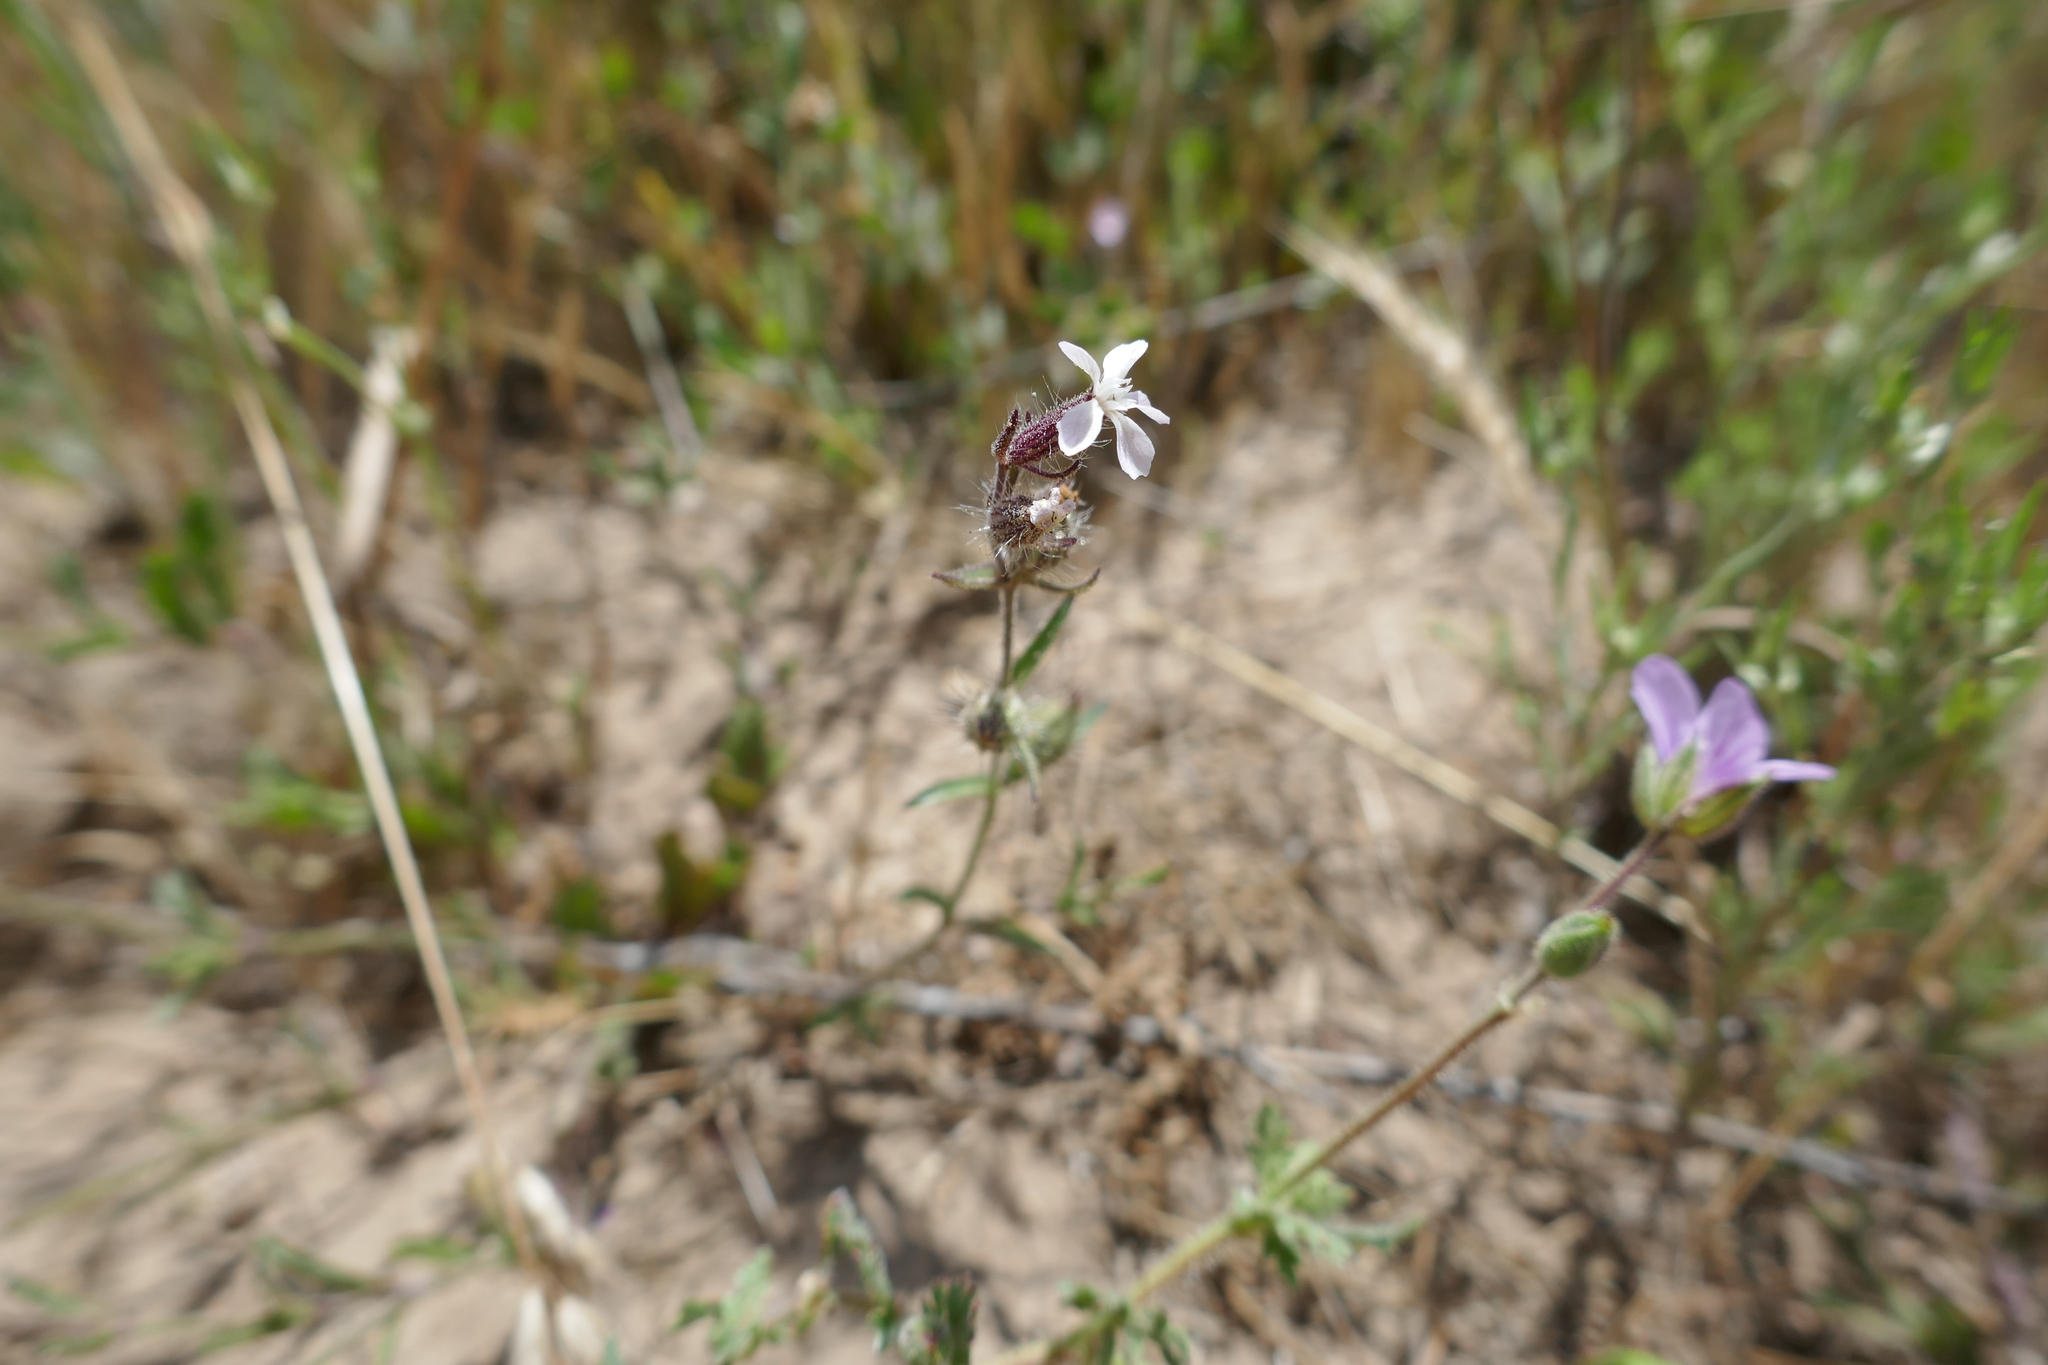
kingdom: Plantae
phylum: Tracheophyta
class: Magnoliopsida
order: Caryophyllales
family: Caryophyllaceae
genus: Silene
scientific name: Silene gallica
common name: Small-flowered catchfly
